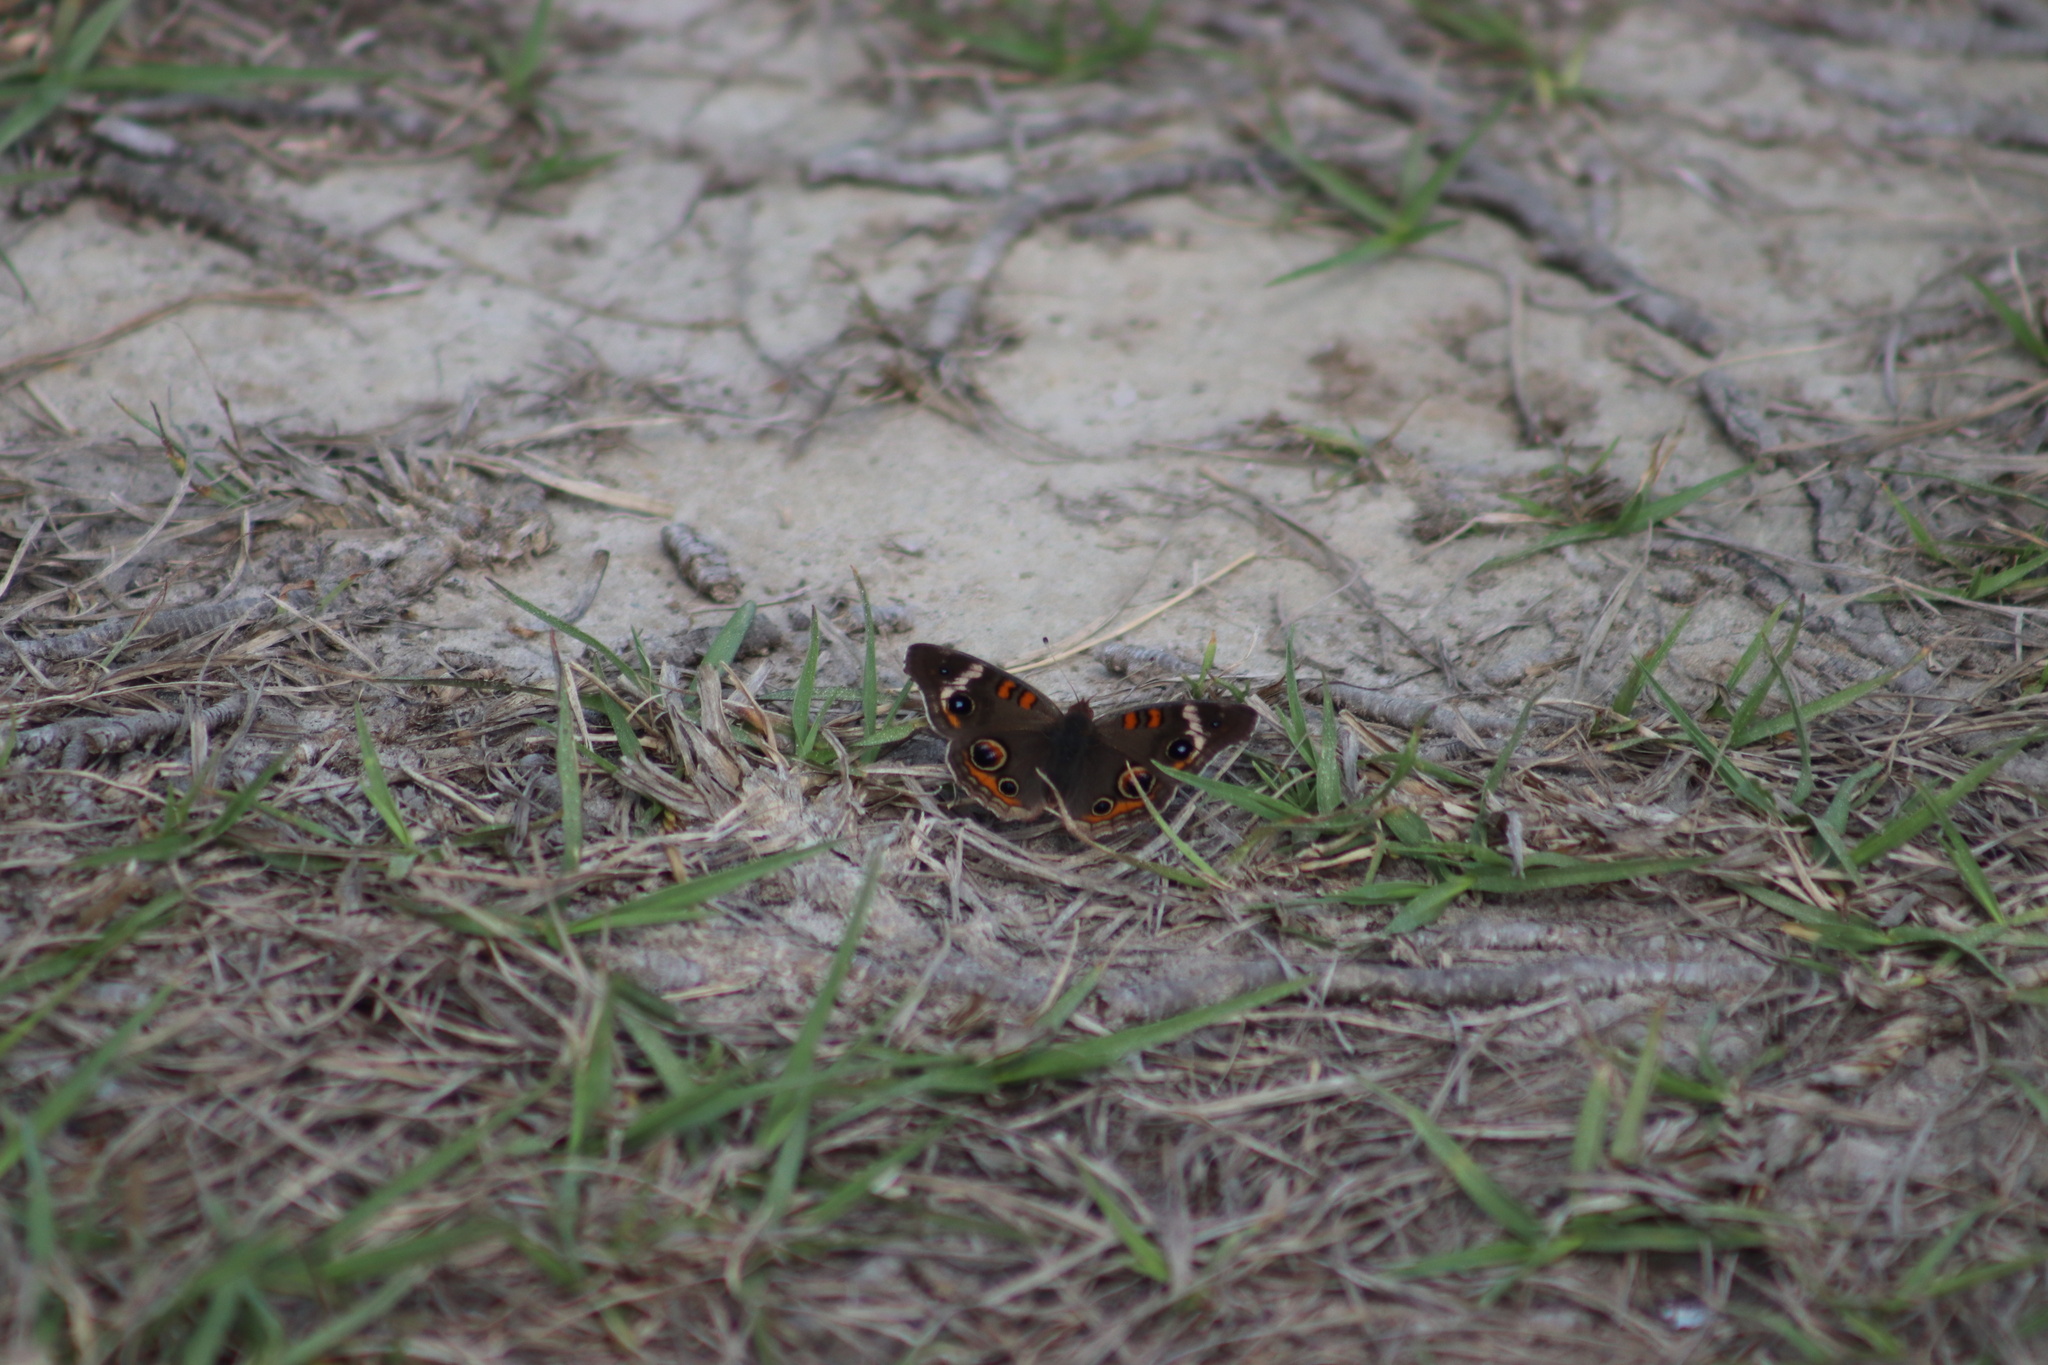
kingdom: Animalia
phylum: Arthropoda
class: Insecta
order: Lepidoptera
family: Nymphalidae
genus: Junonia
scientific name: Junonia coenia
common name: Common buckeye
